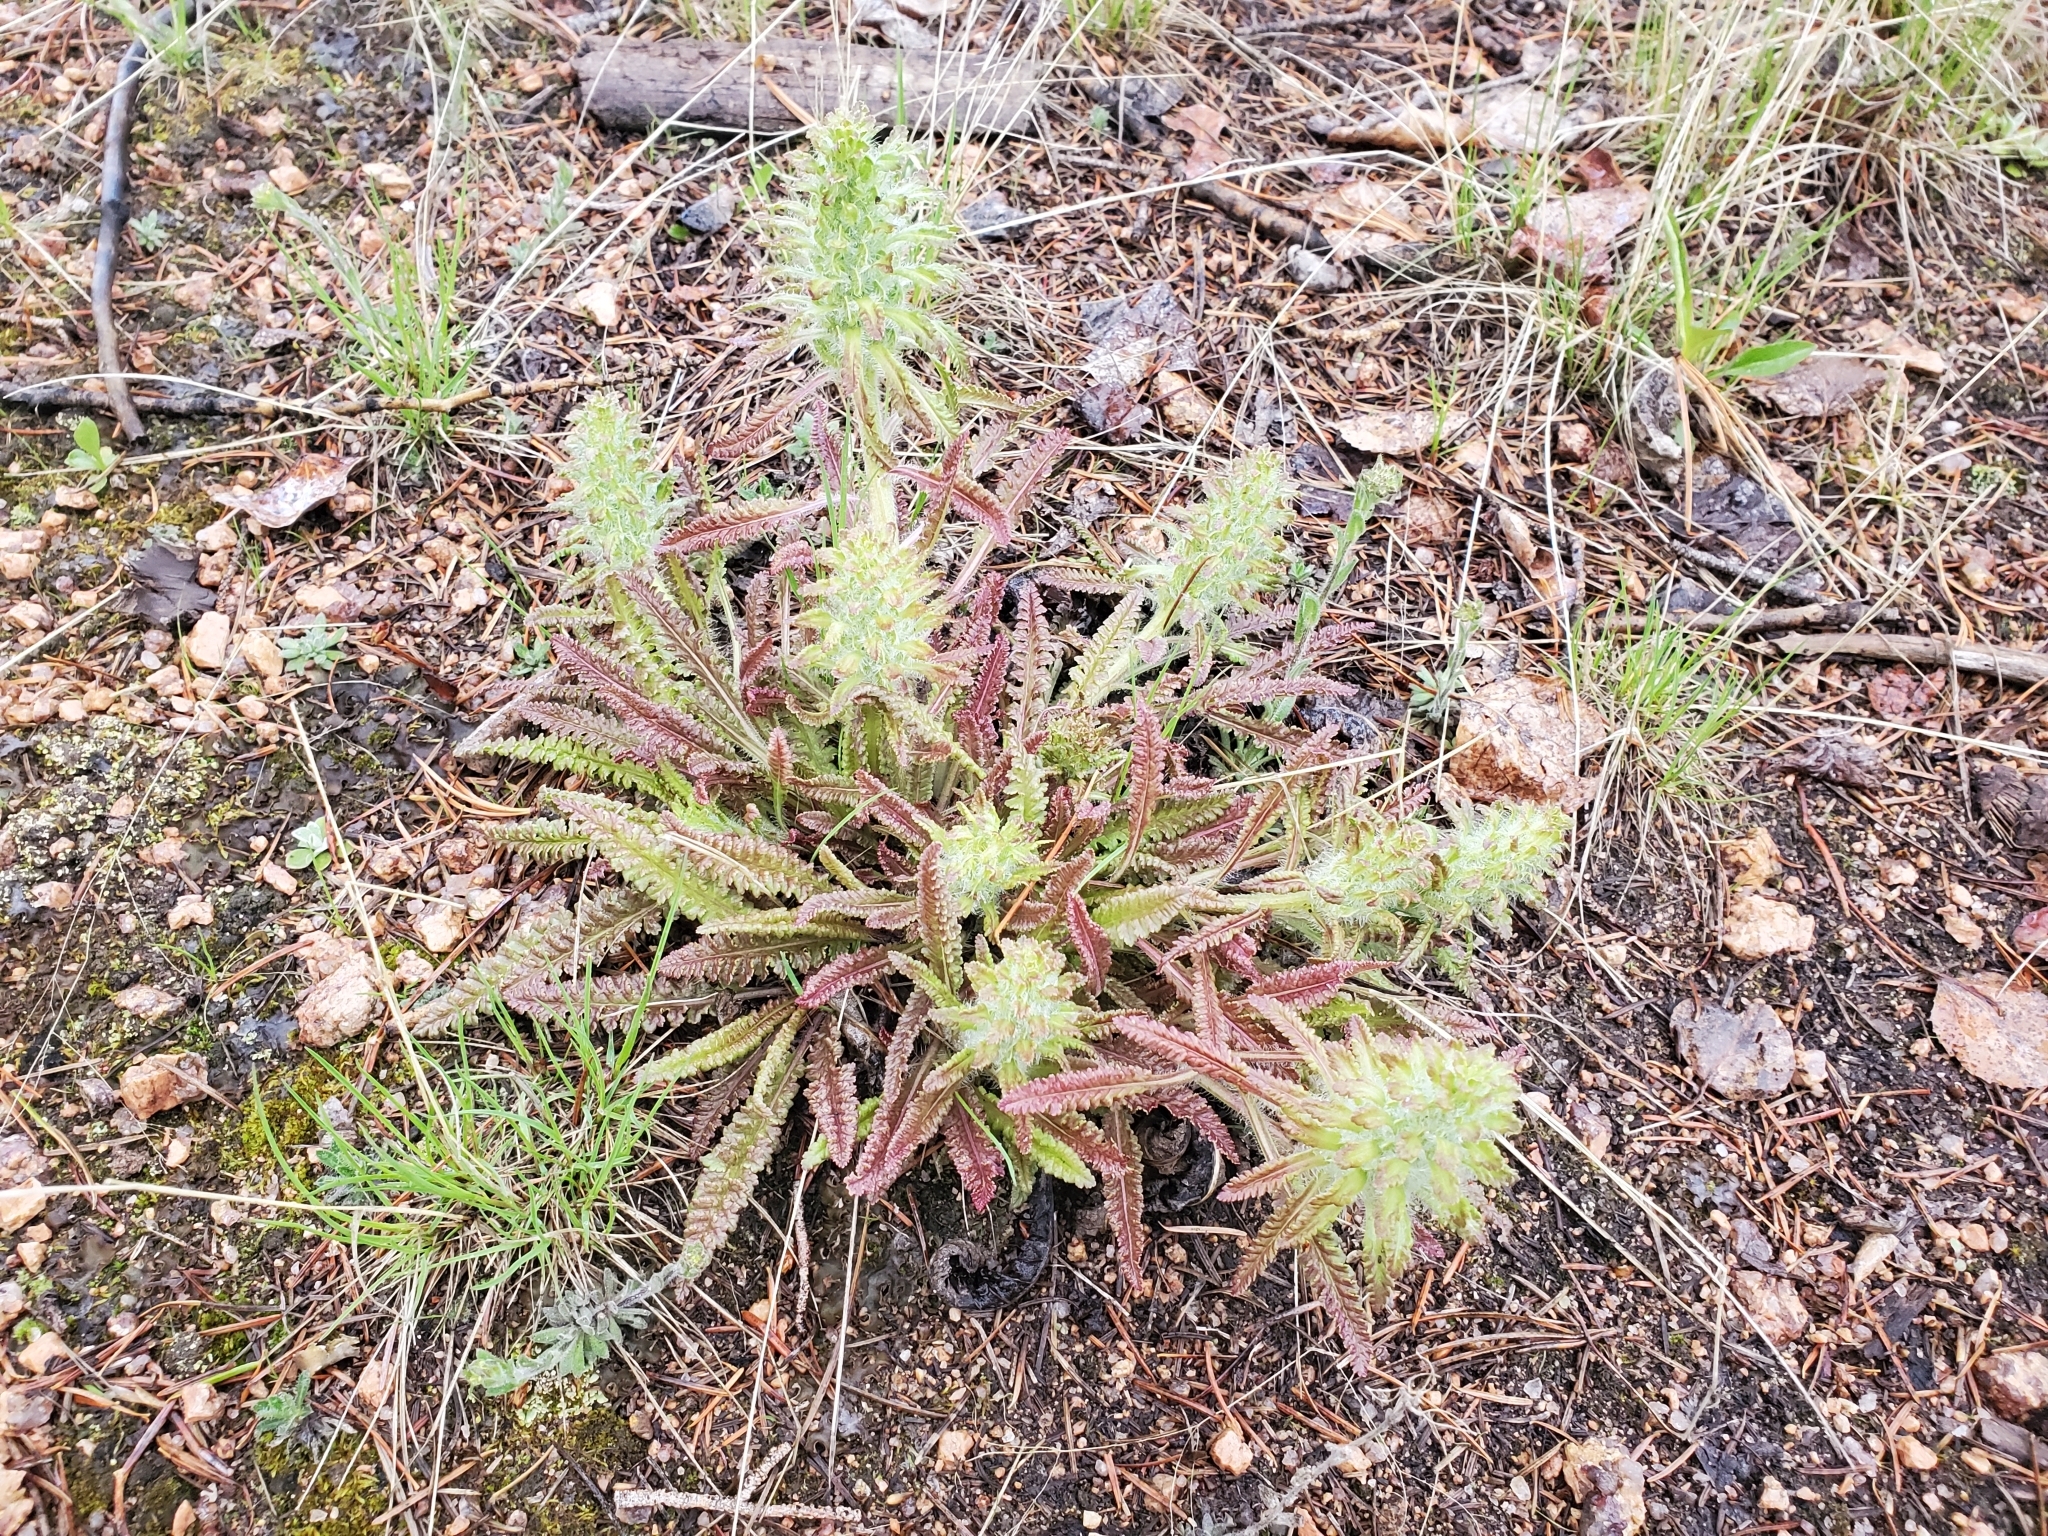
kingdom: Plantae
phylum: Tracheophyta
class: Magnoliopsida
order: Lamiales
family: Orobanchaceae
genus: Pedicularis
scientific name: Pedicularis canadensis
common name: Early lousewort
